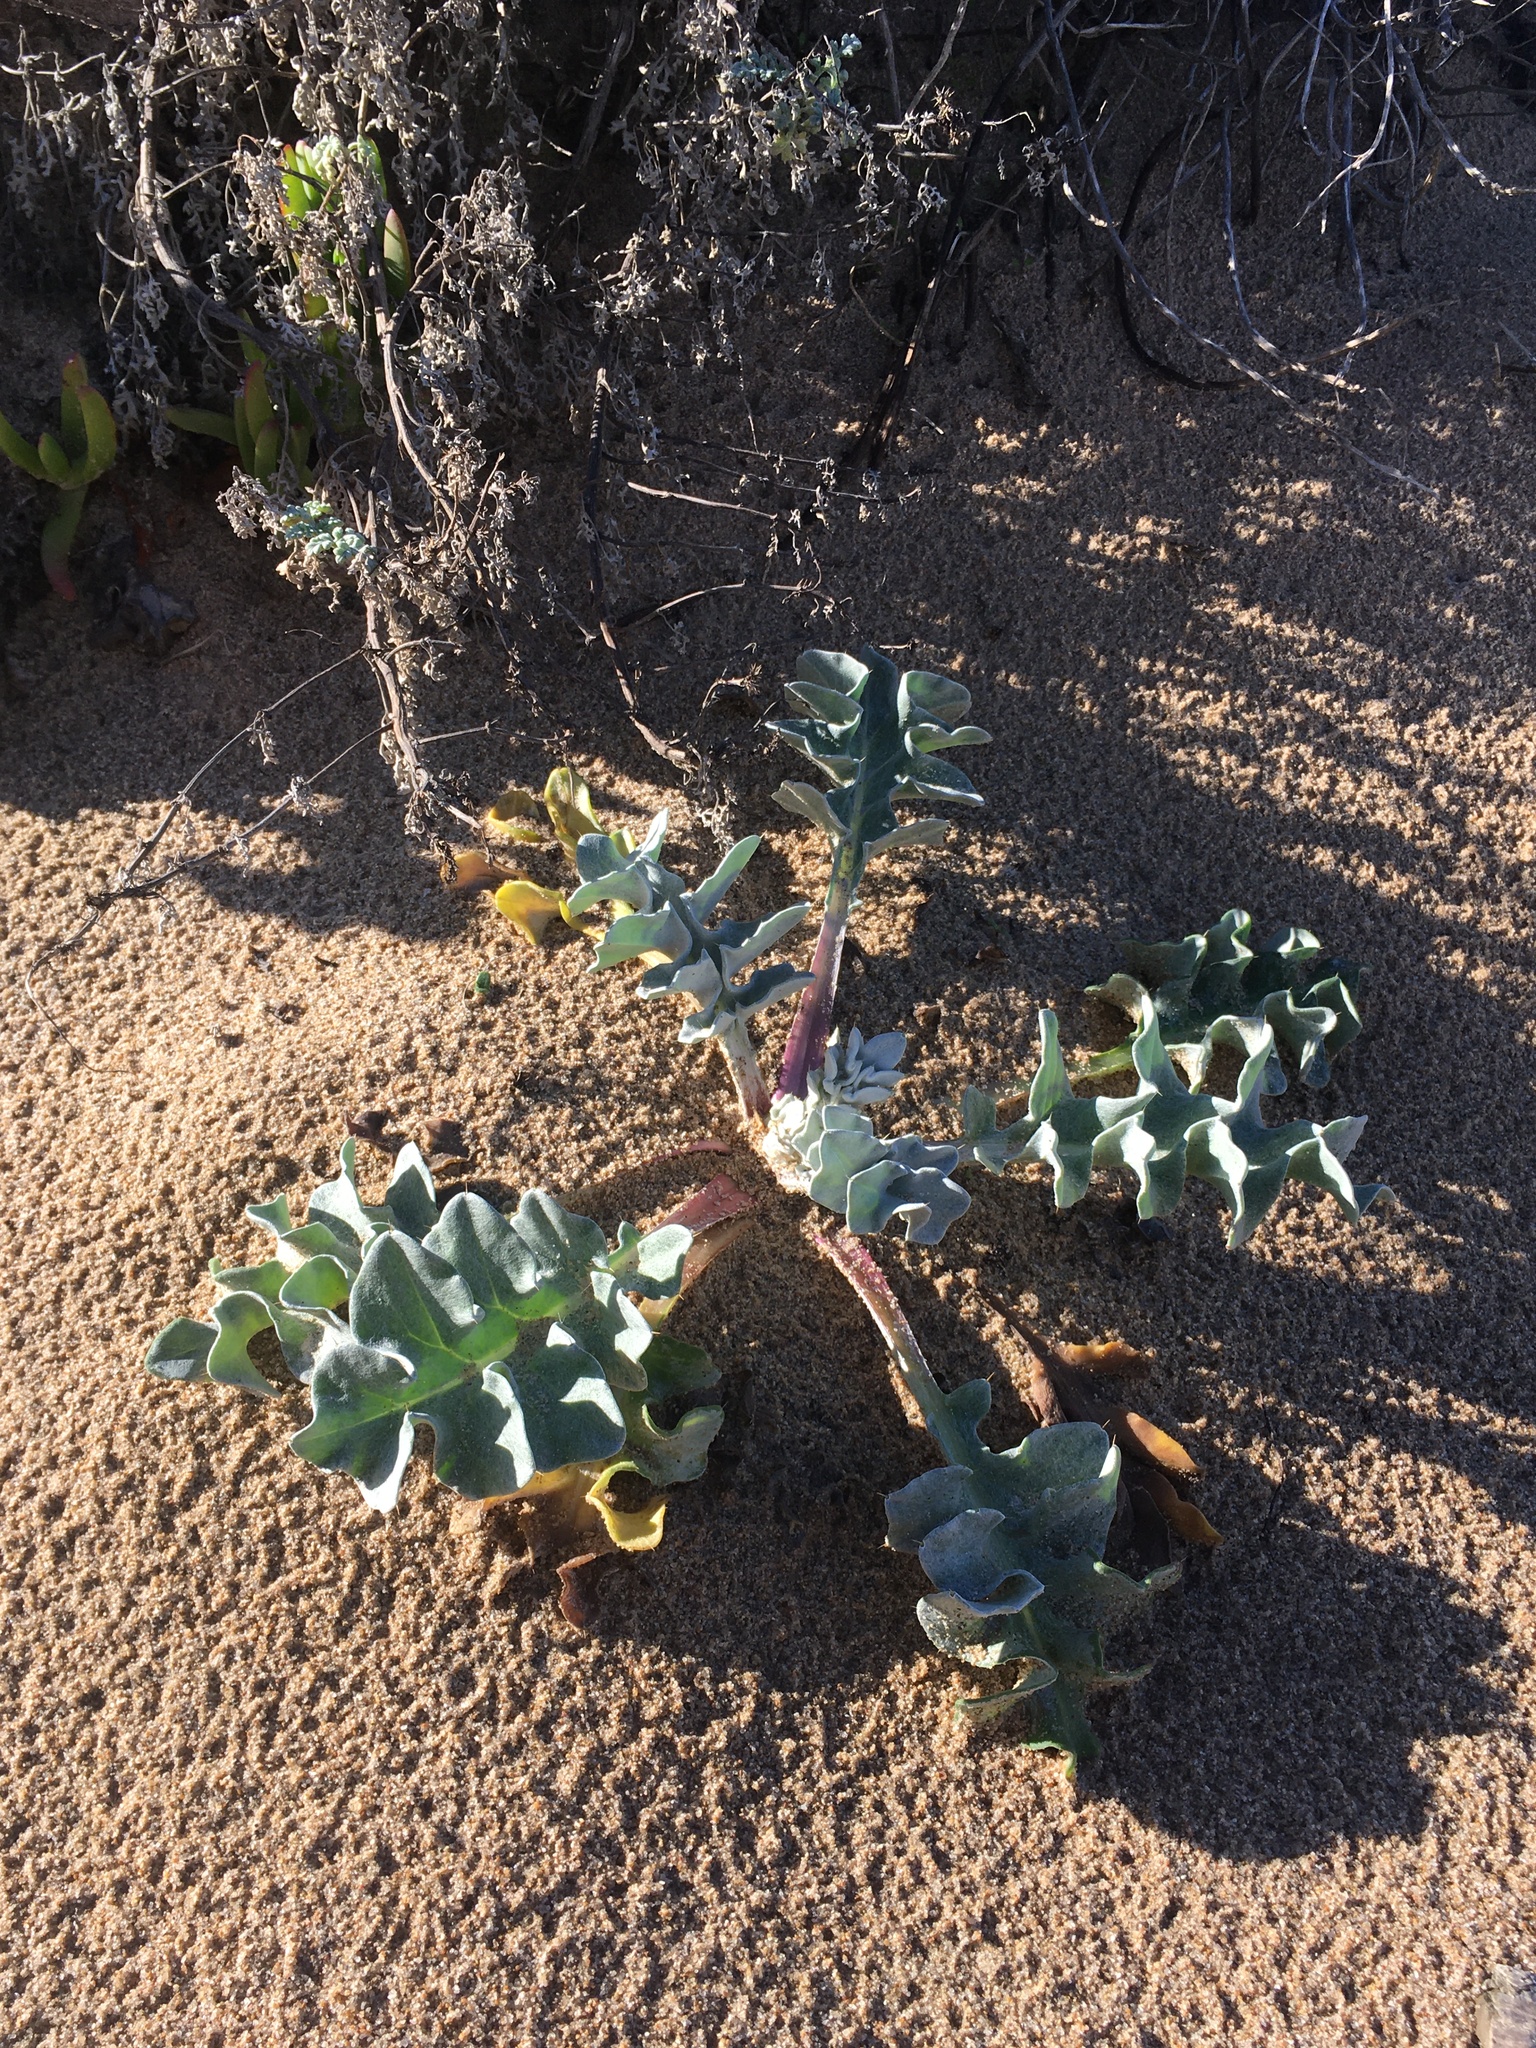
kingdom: Plantae
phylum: Tracheophyta
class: Magnoliopsida
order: Asterales
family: Asteraceae
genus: Cirsium
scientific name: Cirsium rhothophilum
